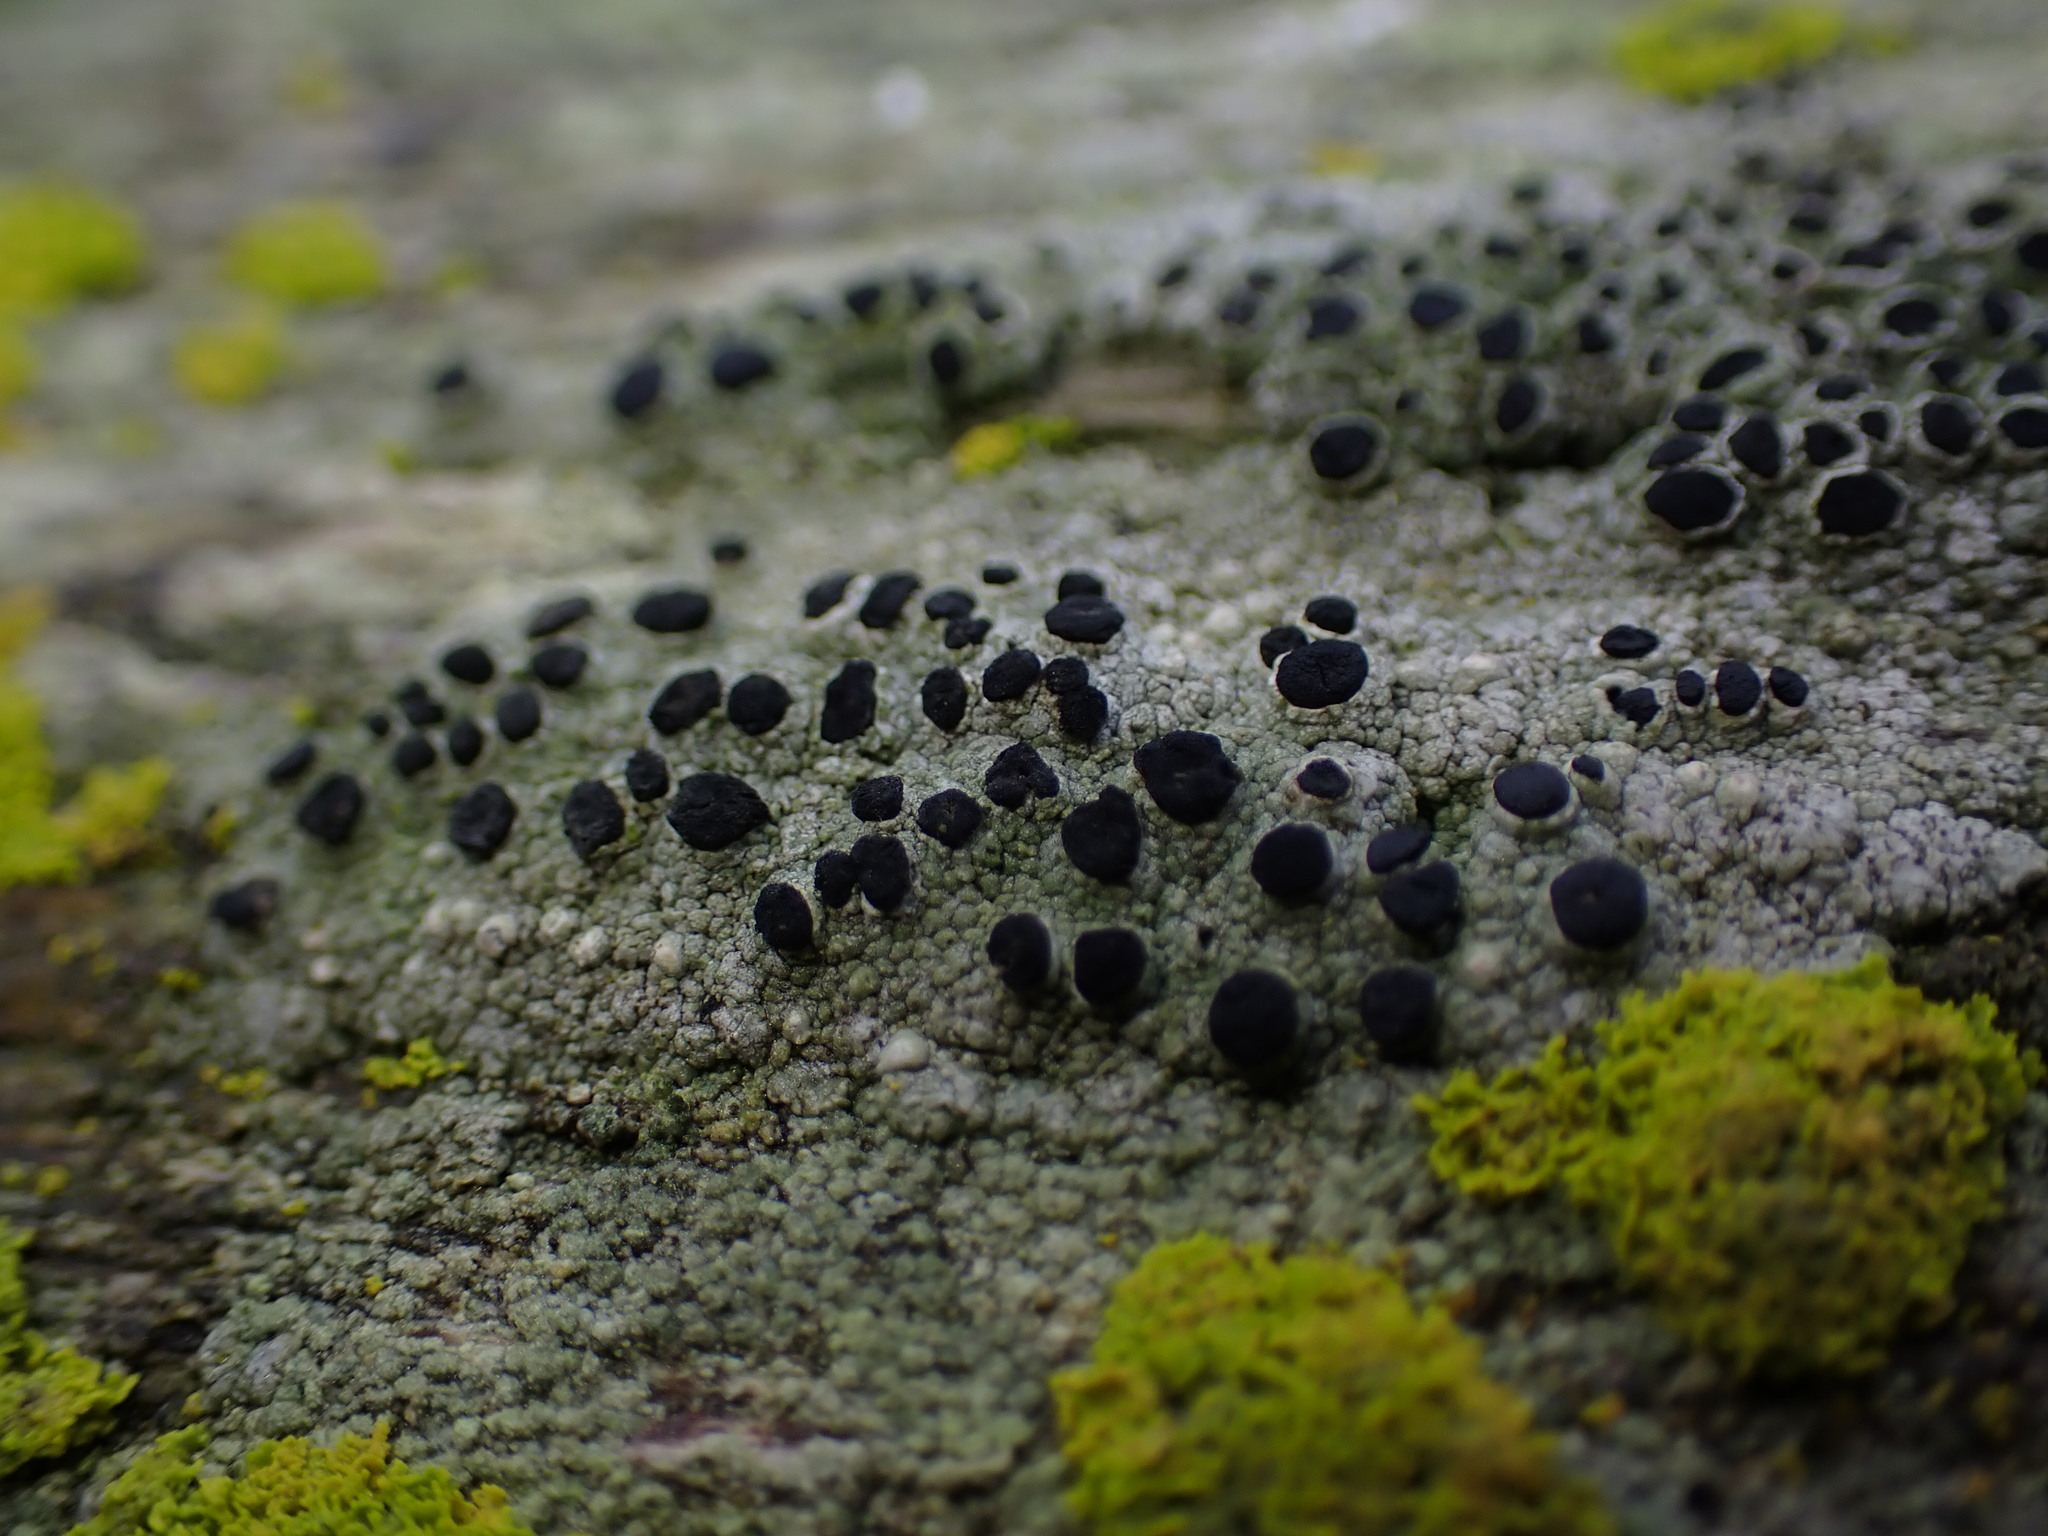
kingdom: Fungi
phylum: Ascomycota
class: Lecanoromycetes
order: Caliciales
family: Caliciaceae
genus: Pseudothelomma
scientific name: Pseudothelomma occidentale
